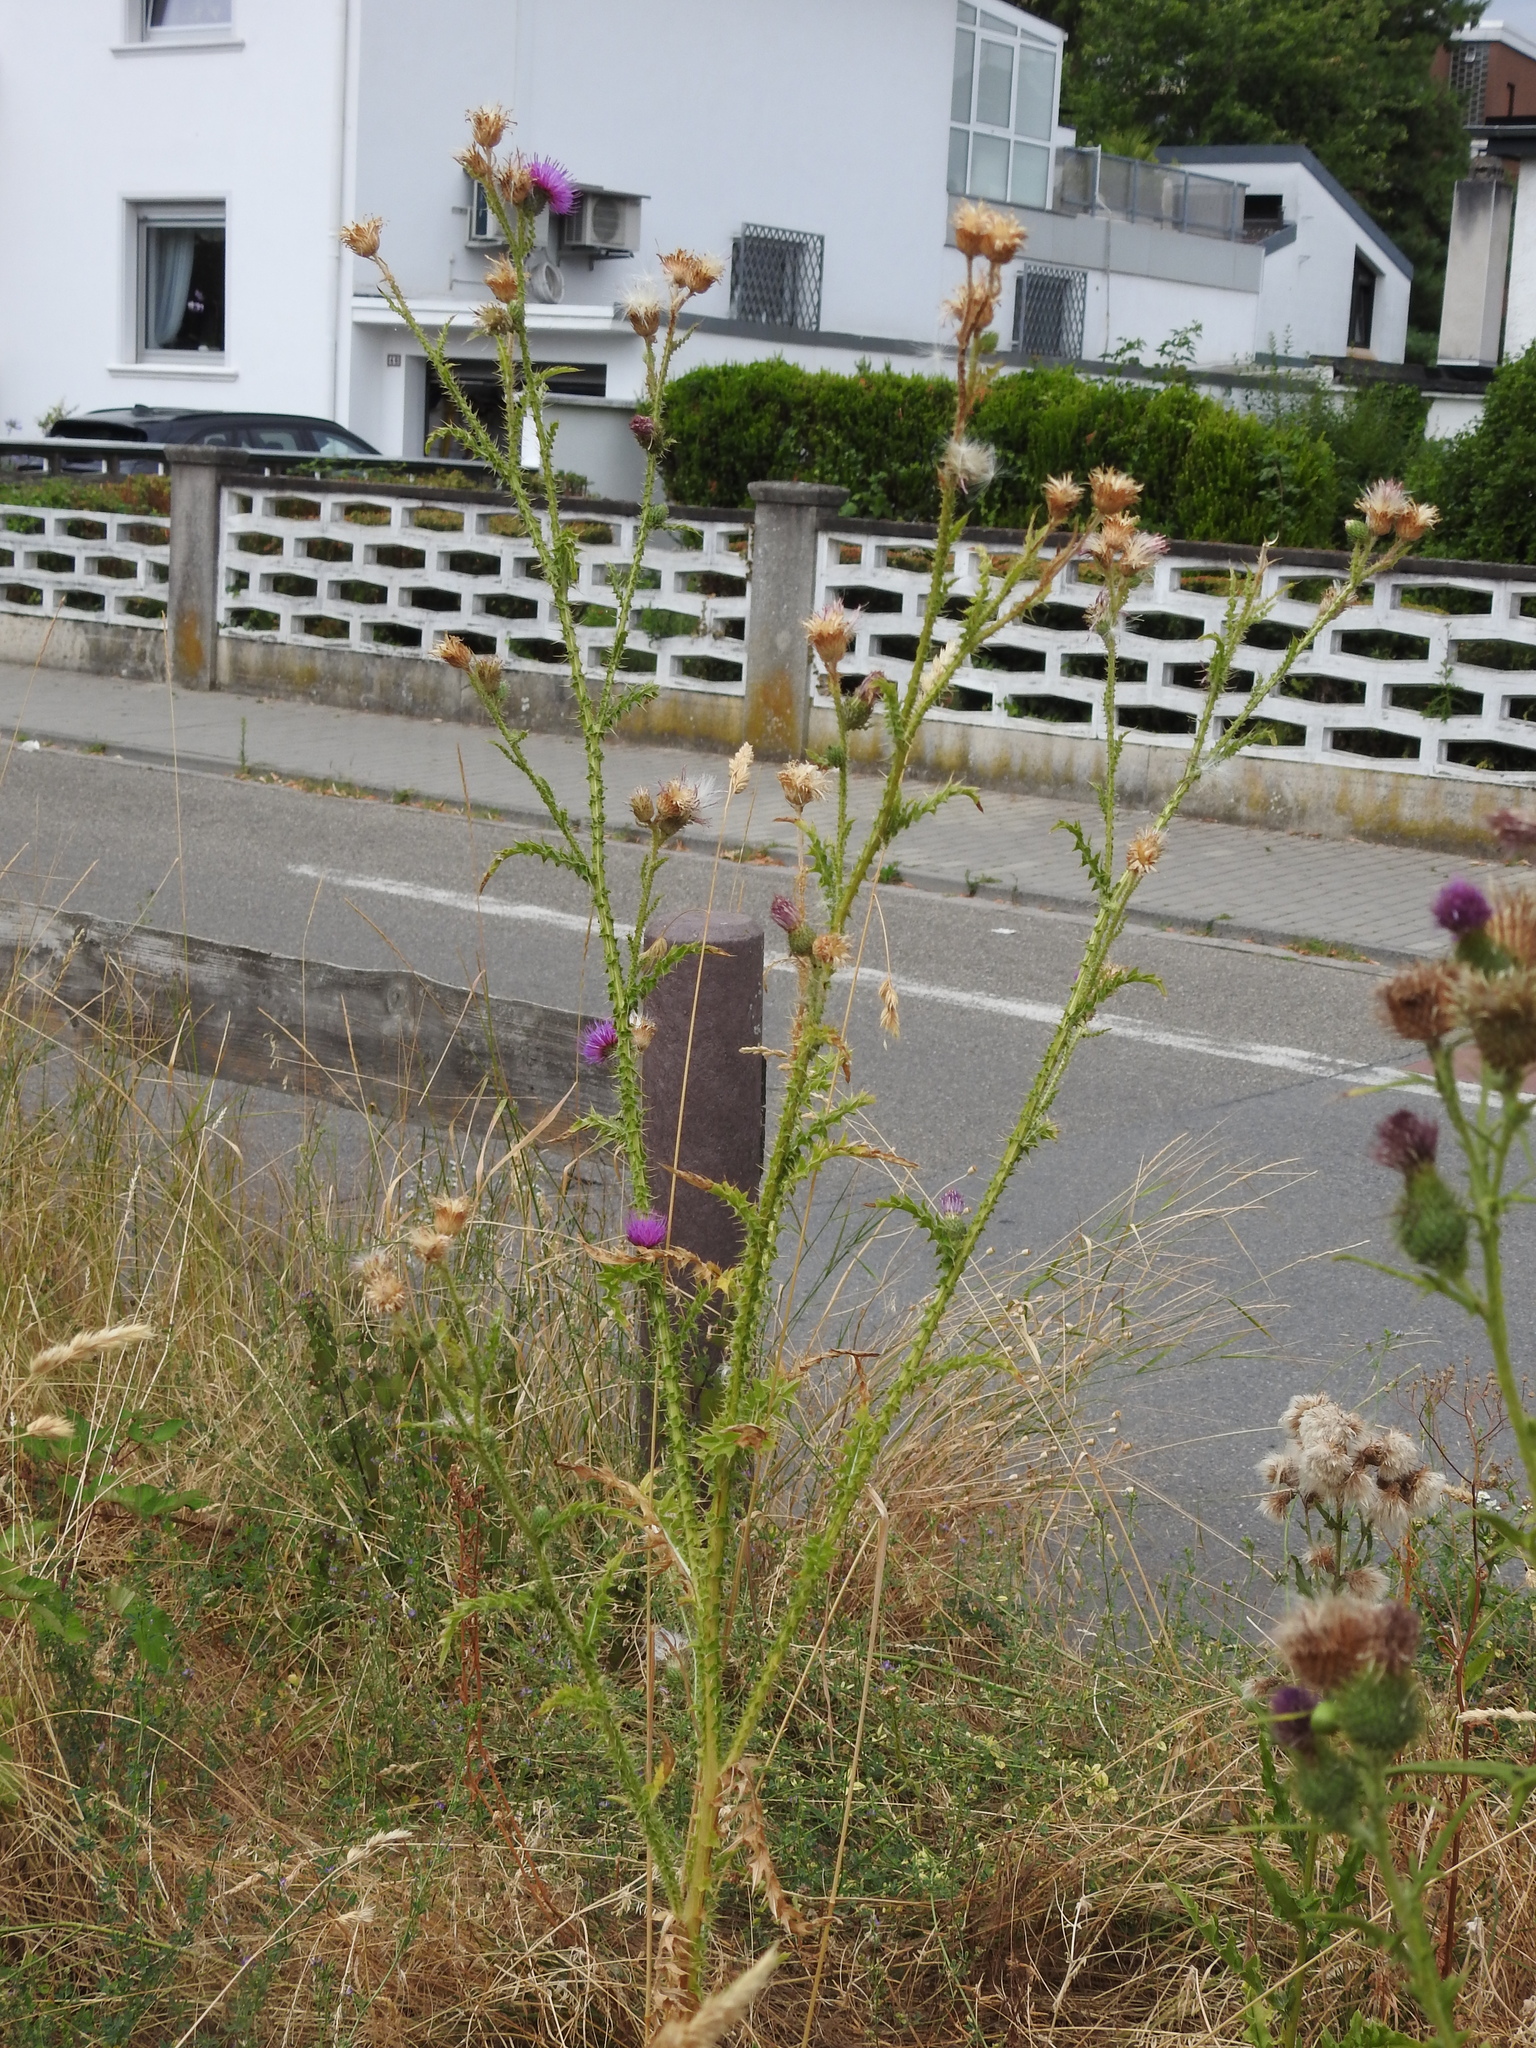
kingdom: Plantae
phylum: Tracheophyta
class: Magnoliopsida
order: Asterales
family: Asteraceae
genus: Carduus
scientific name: Carduus acanthoides
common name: Plumeless thistle
